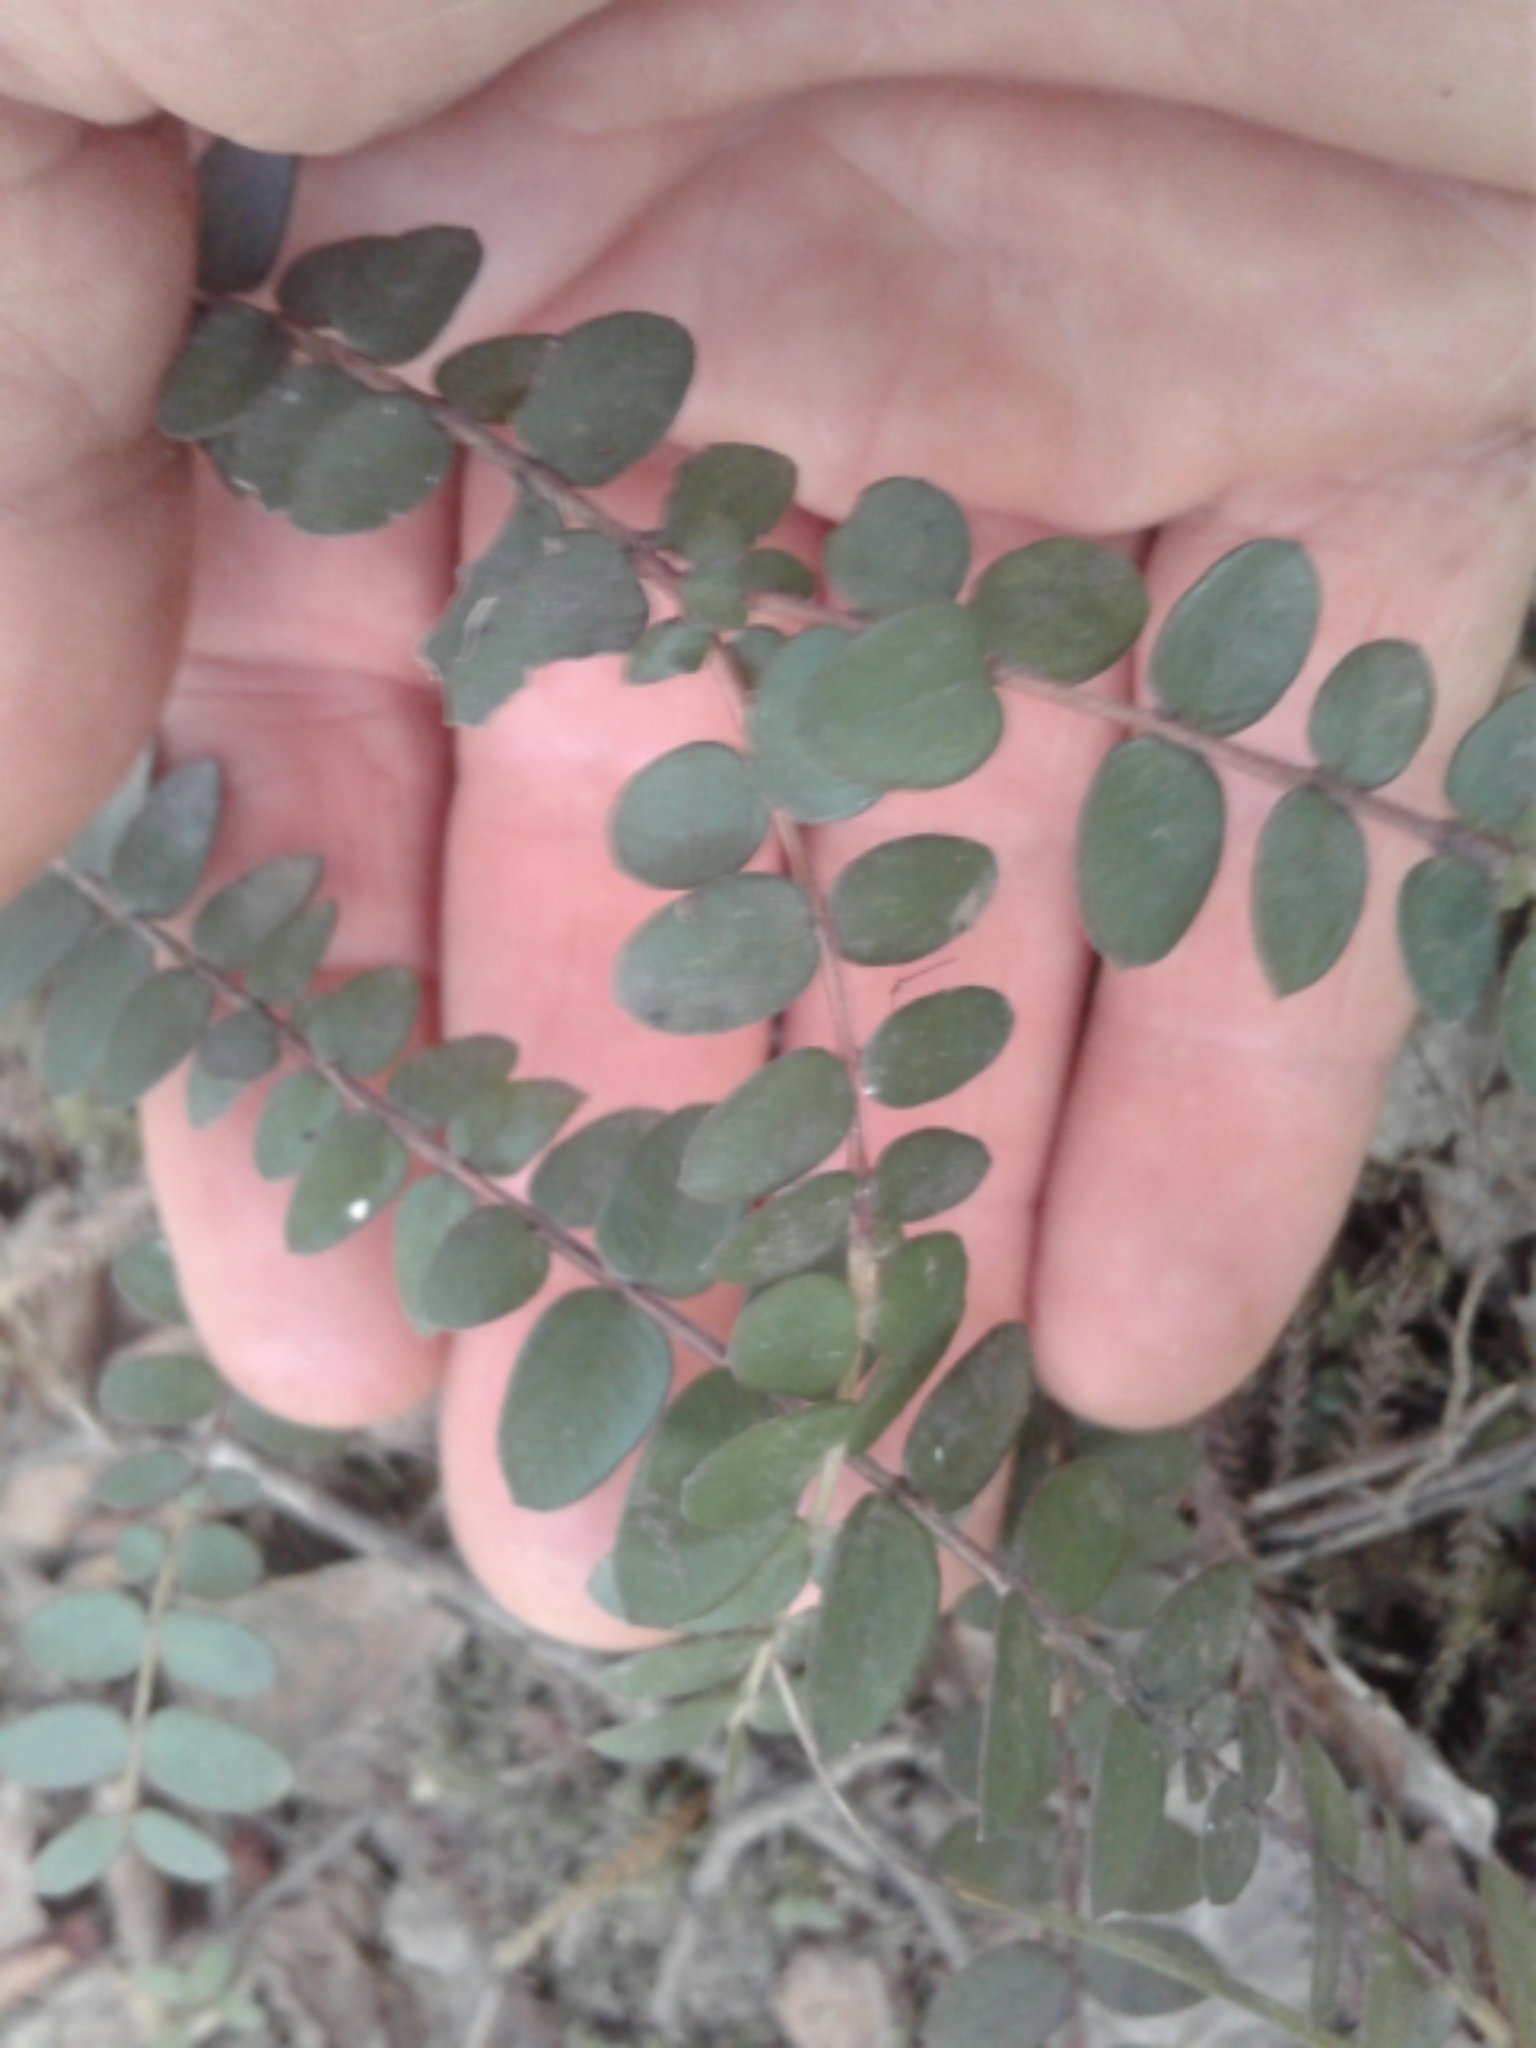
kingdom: Plantae
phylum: Tracheophyta
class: Magnoliopsida
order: Myrtales
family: Myrtaceae
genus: Metrosideros
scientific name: Metrosideros diffusa
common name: Small ratavine
